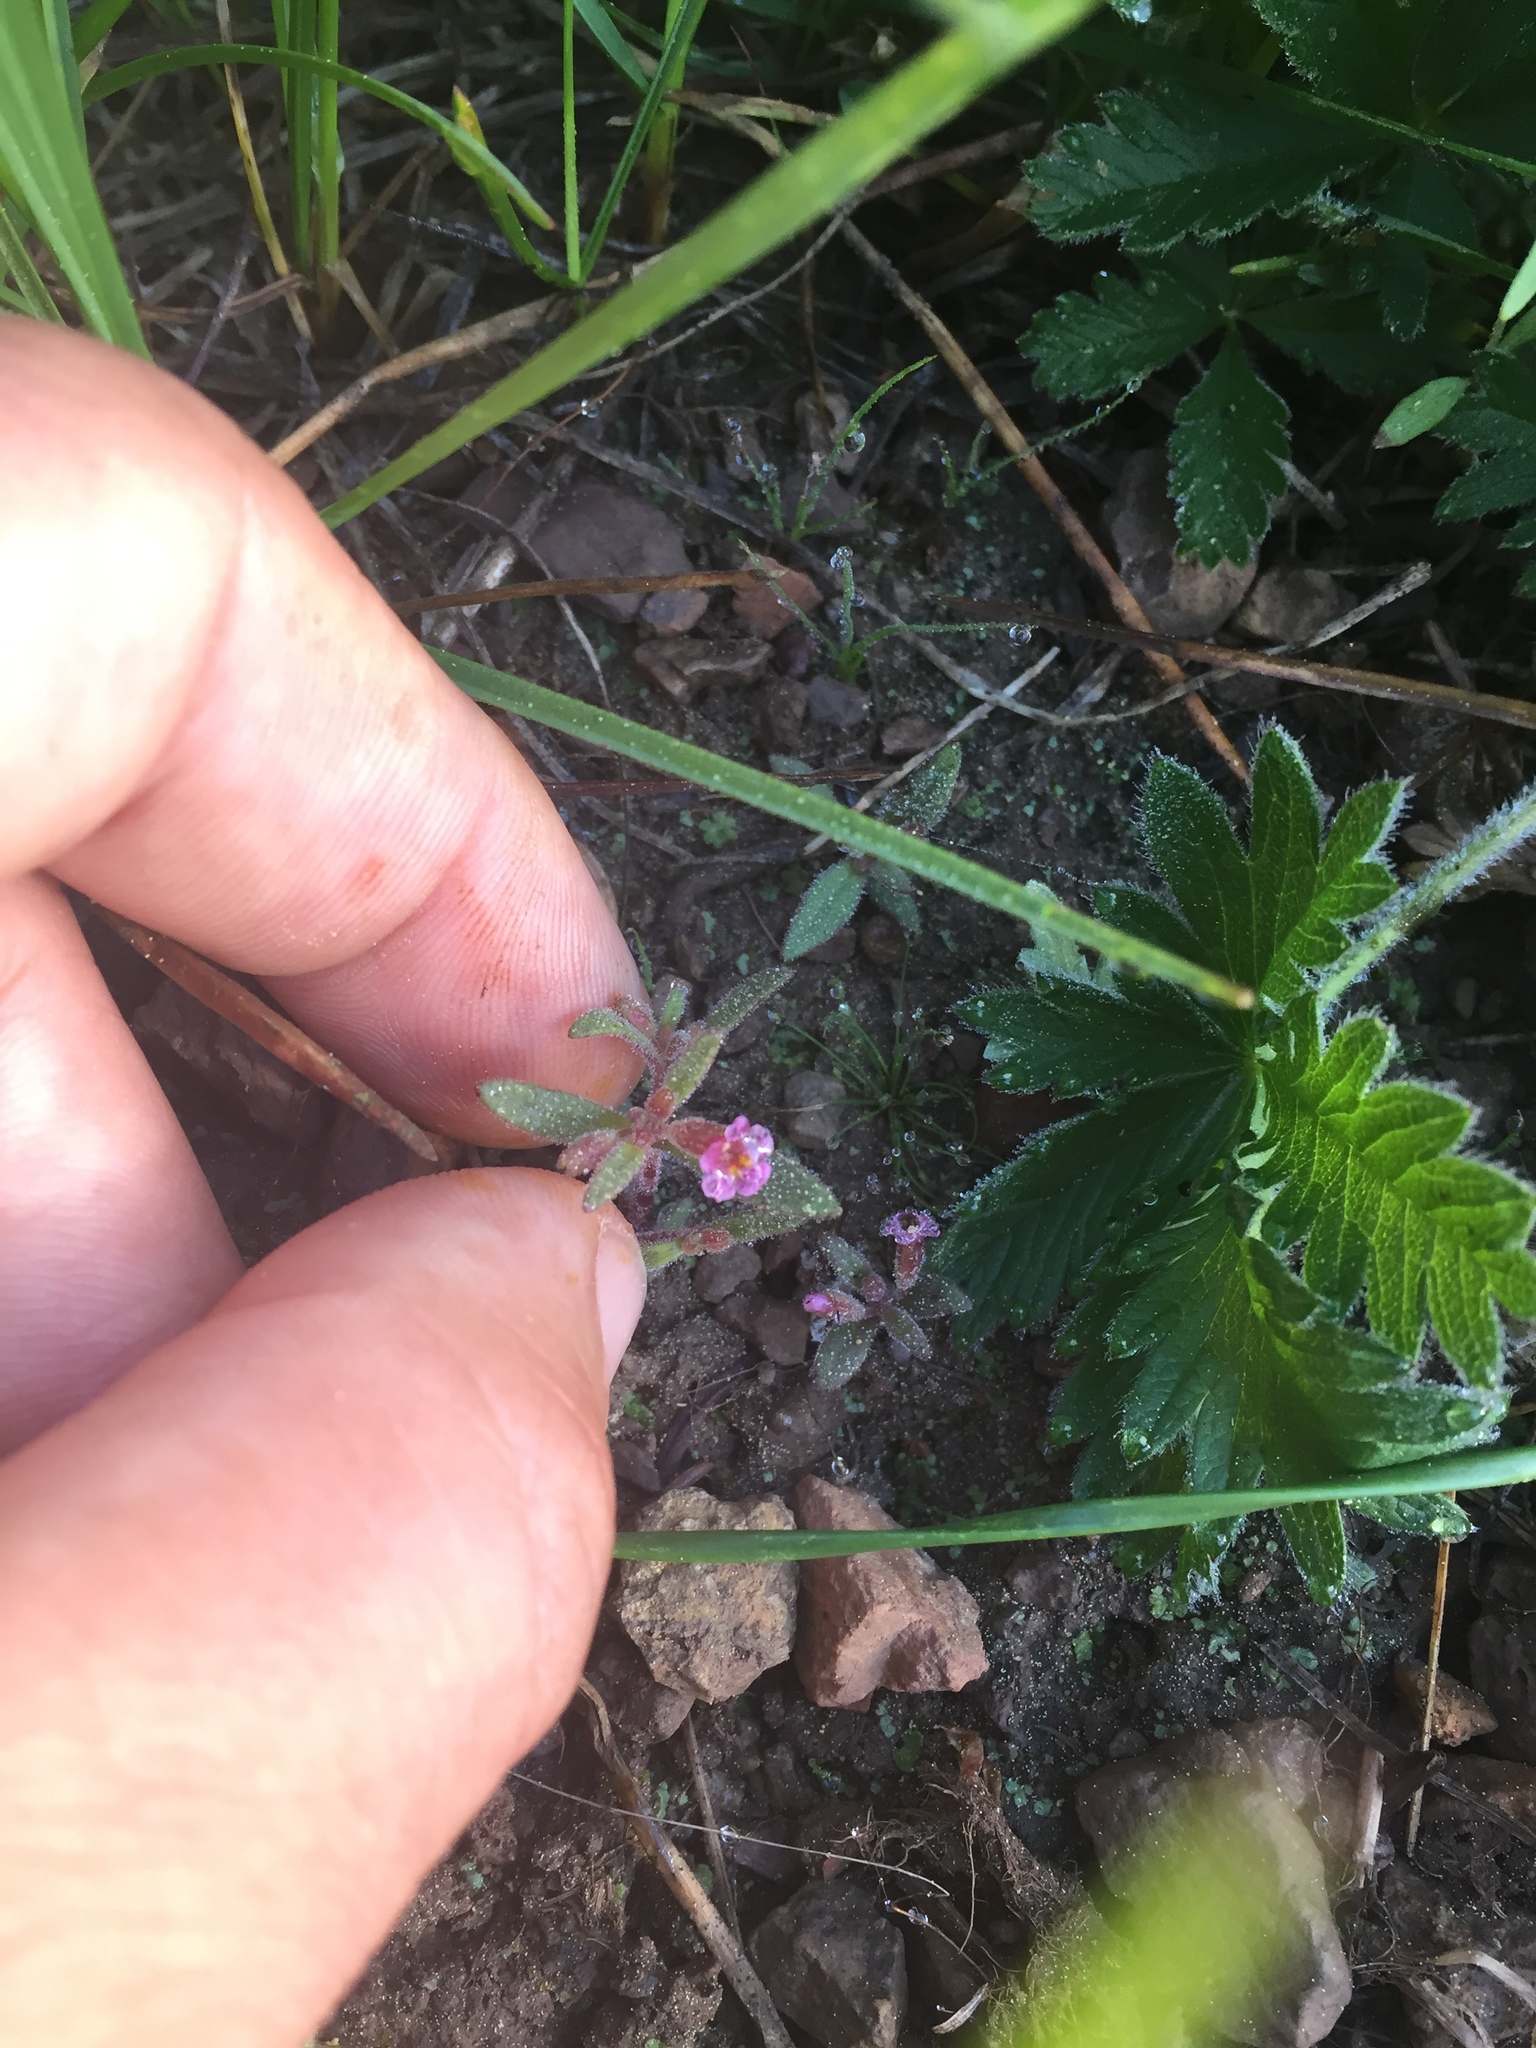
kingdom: Plantae
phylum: Tracheophyta
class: Magnoliopsida
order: Lamiales
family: Phrymaceae
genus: Erythranthe
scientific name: Erythranthe breweri
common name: Brewer's monkeyflower
